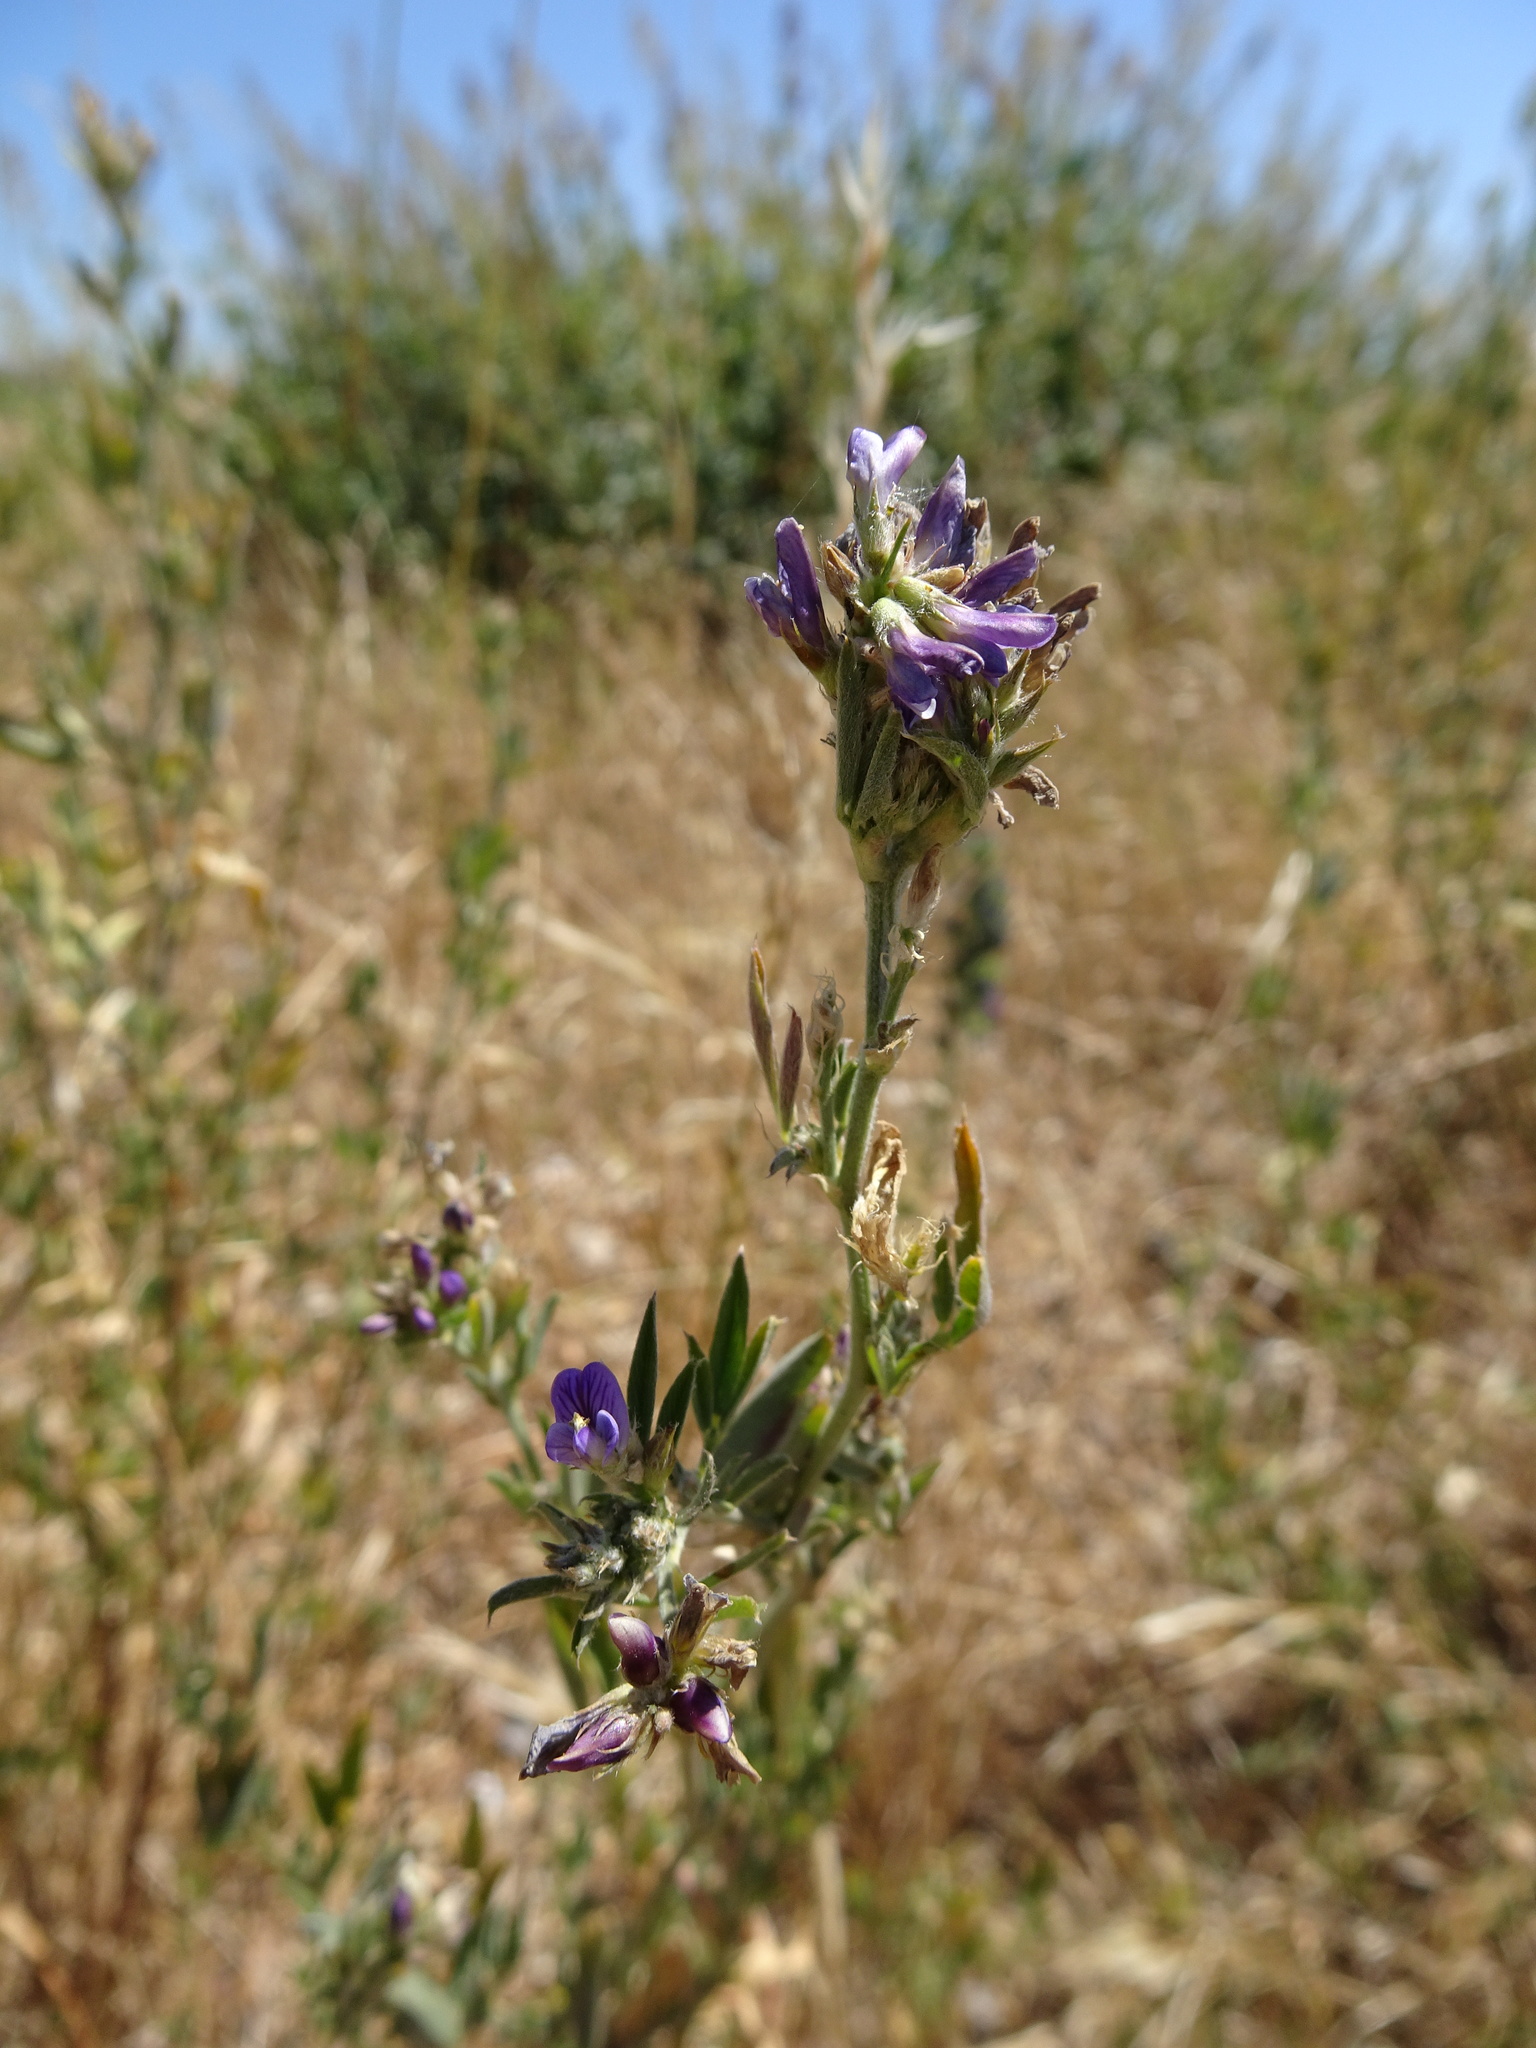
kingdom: Plantae
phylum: Tracheophyta
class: Magnoliopsida
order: Fabales
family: Fabaceae
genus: Medicago
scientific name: Medicago sativa
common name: Alfalfa
